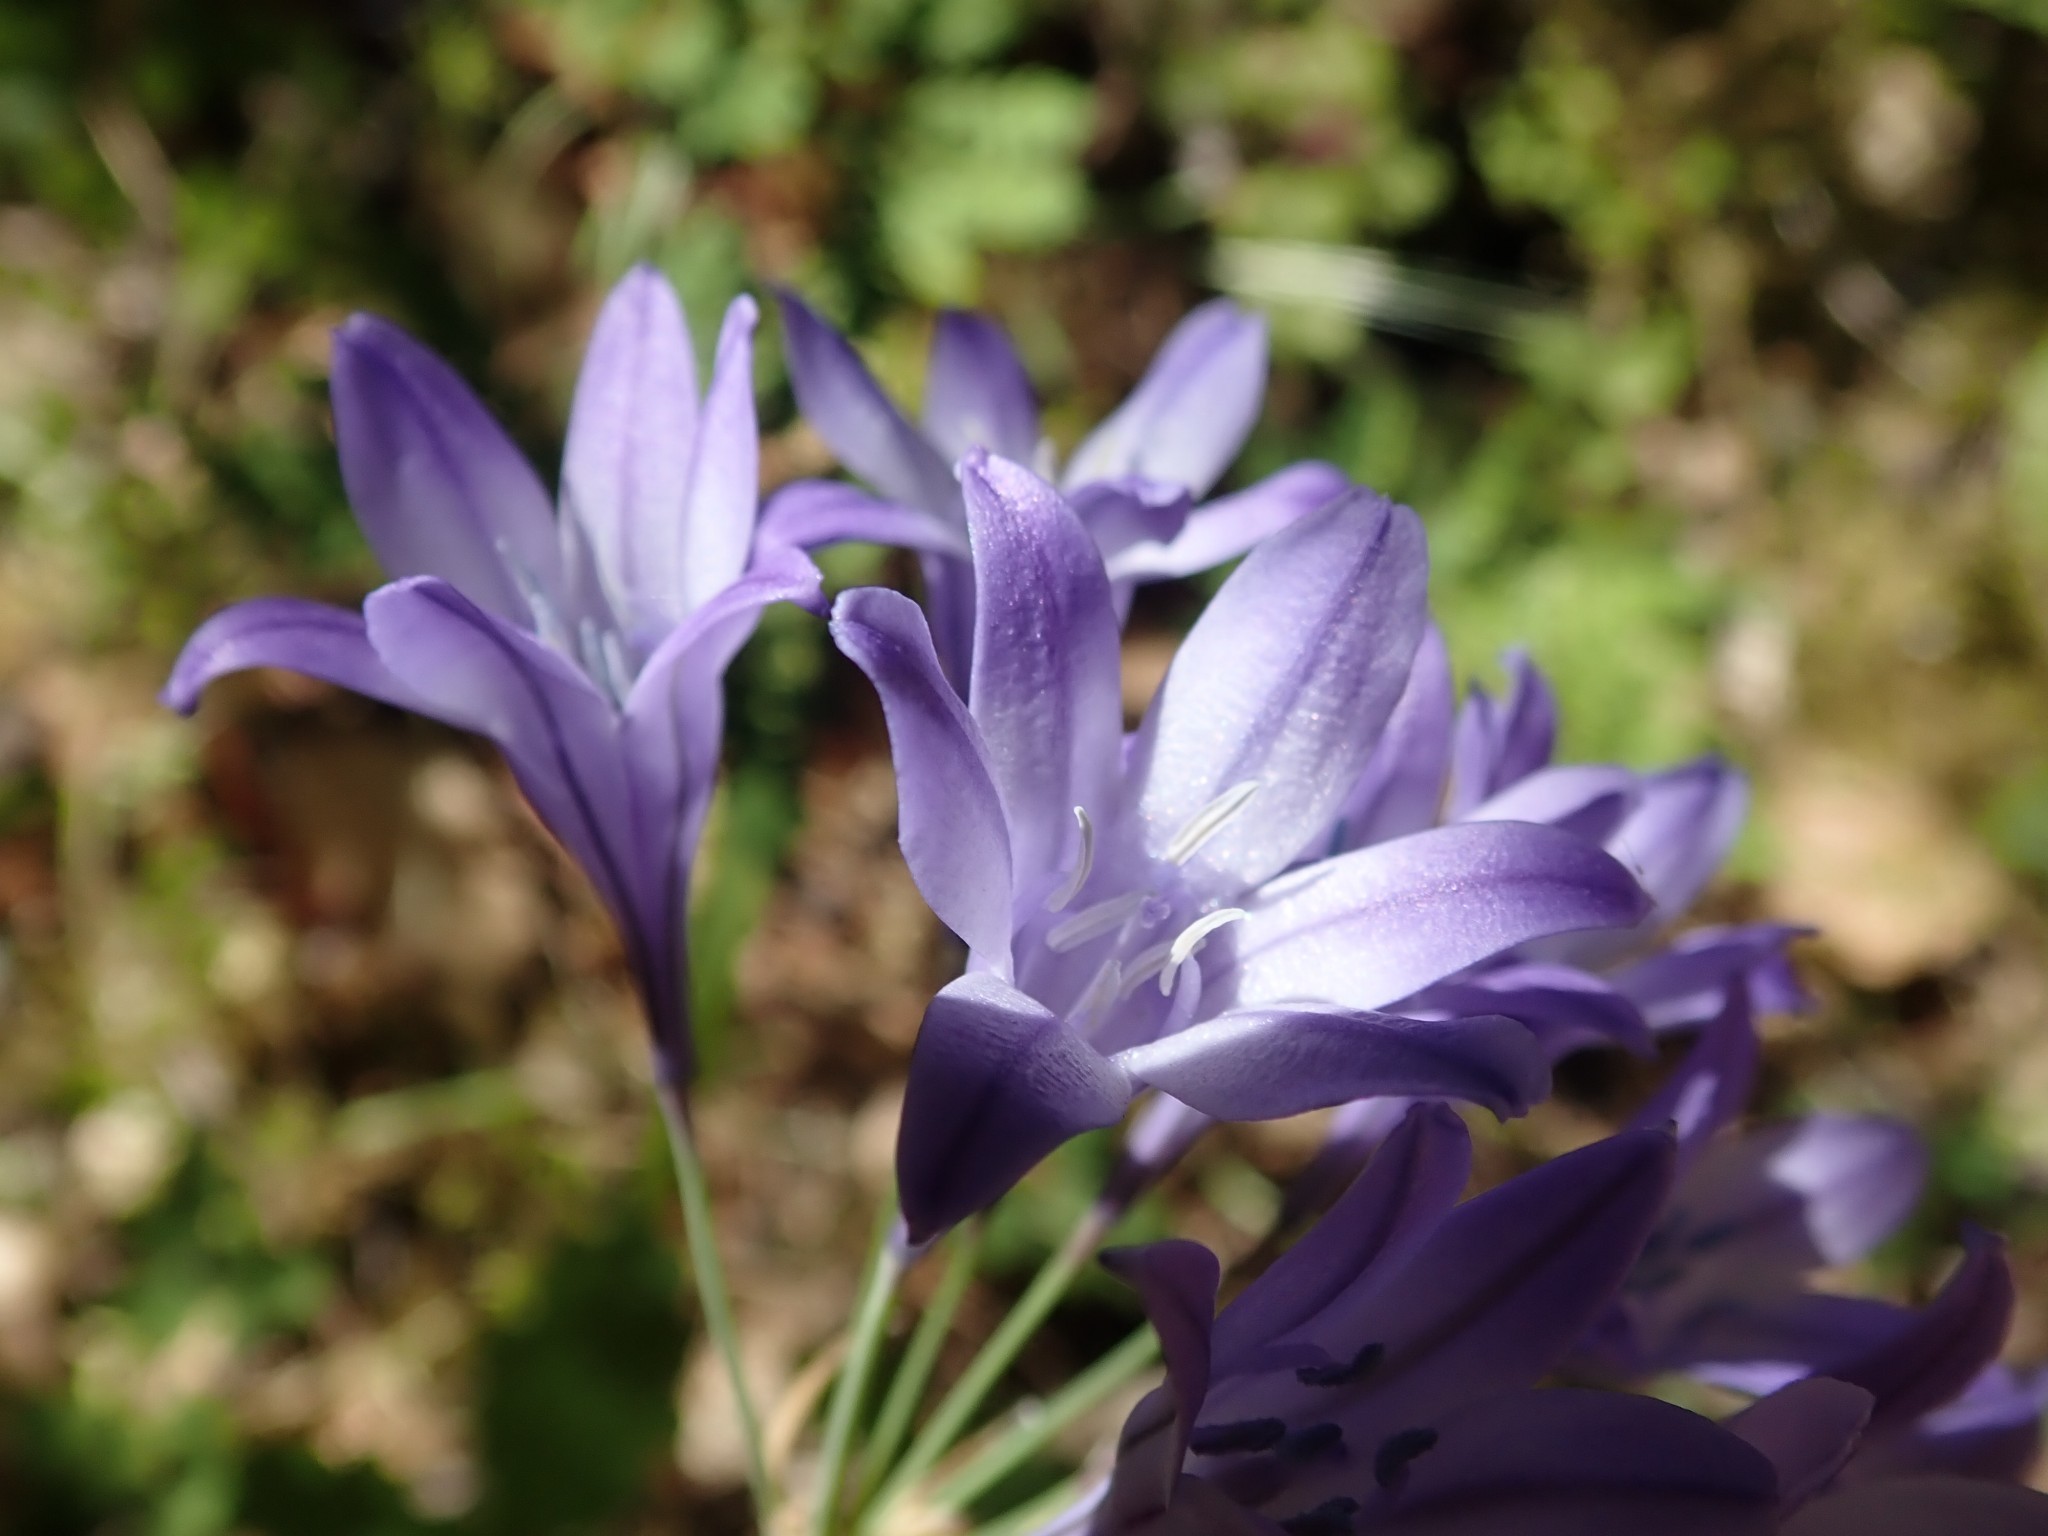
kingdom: Plantae
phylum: Tracheophyta
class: Liliopsida
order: Asparagales
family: Asparagaceae
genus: Triteleia
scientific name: Triteleia laxa
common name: Triplet-lily
